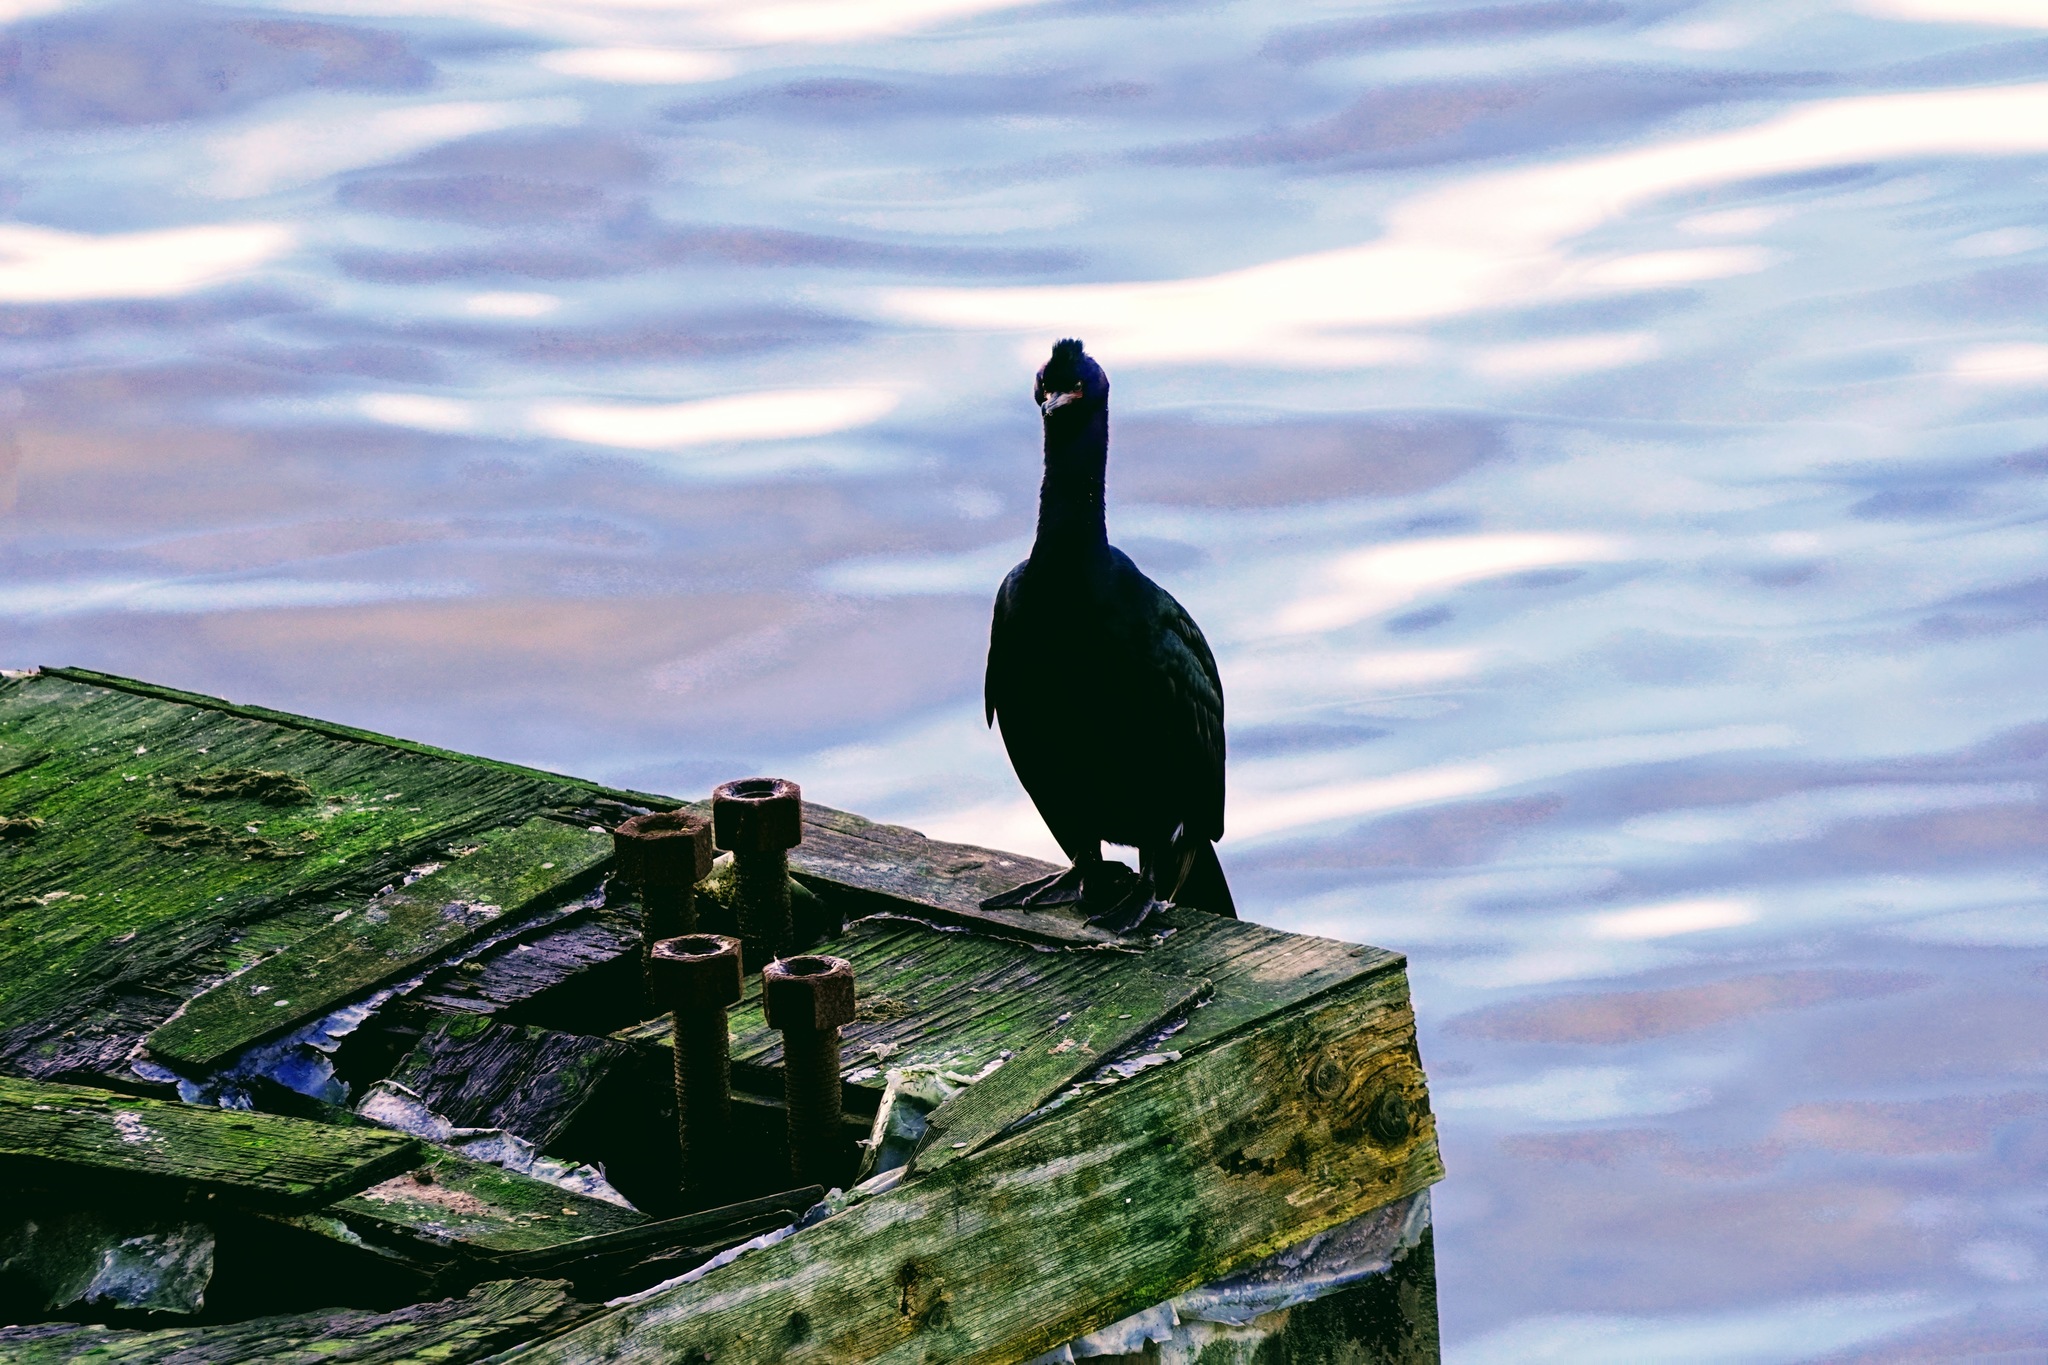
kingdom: Animalia
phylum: Chordata
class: Aves
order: Suliformes
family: Phalacrocoracidae
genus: Phalacrocorax
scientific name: Phalacrocorax pelagicus
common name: Pelagic cormorant
